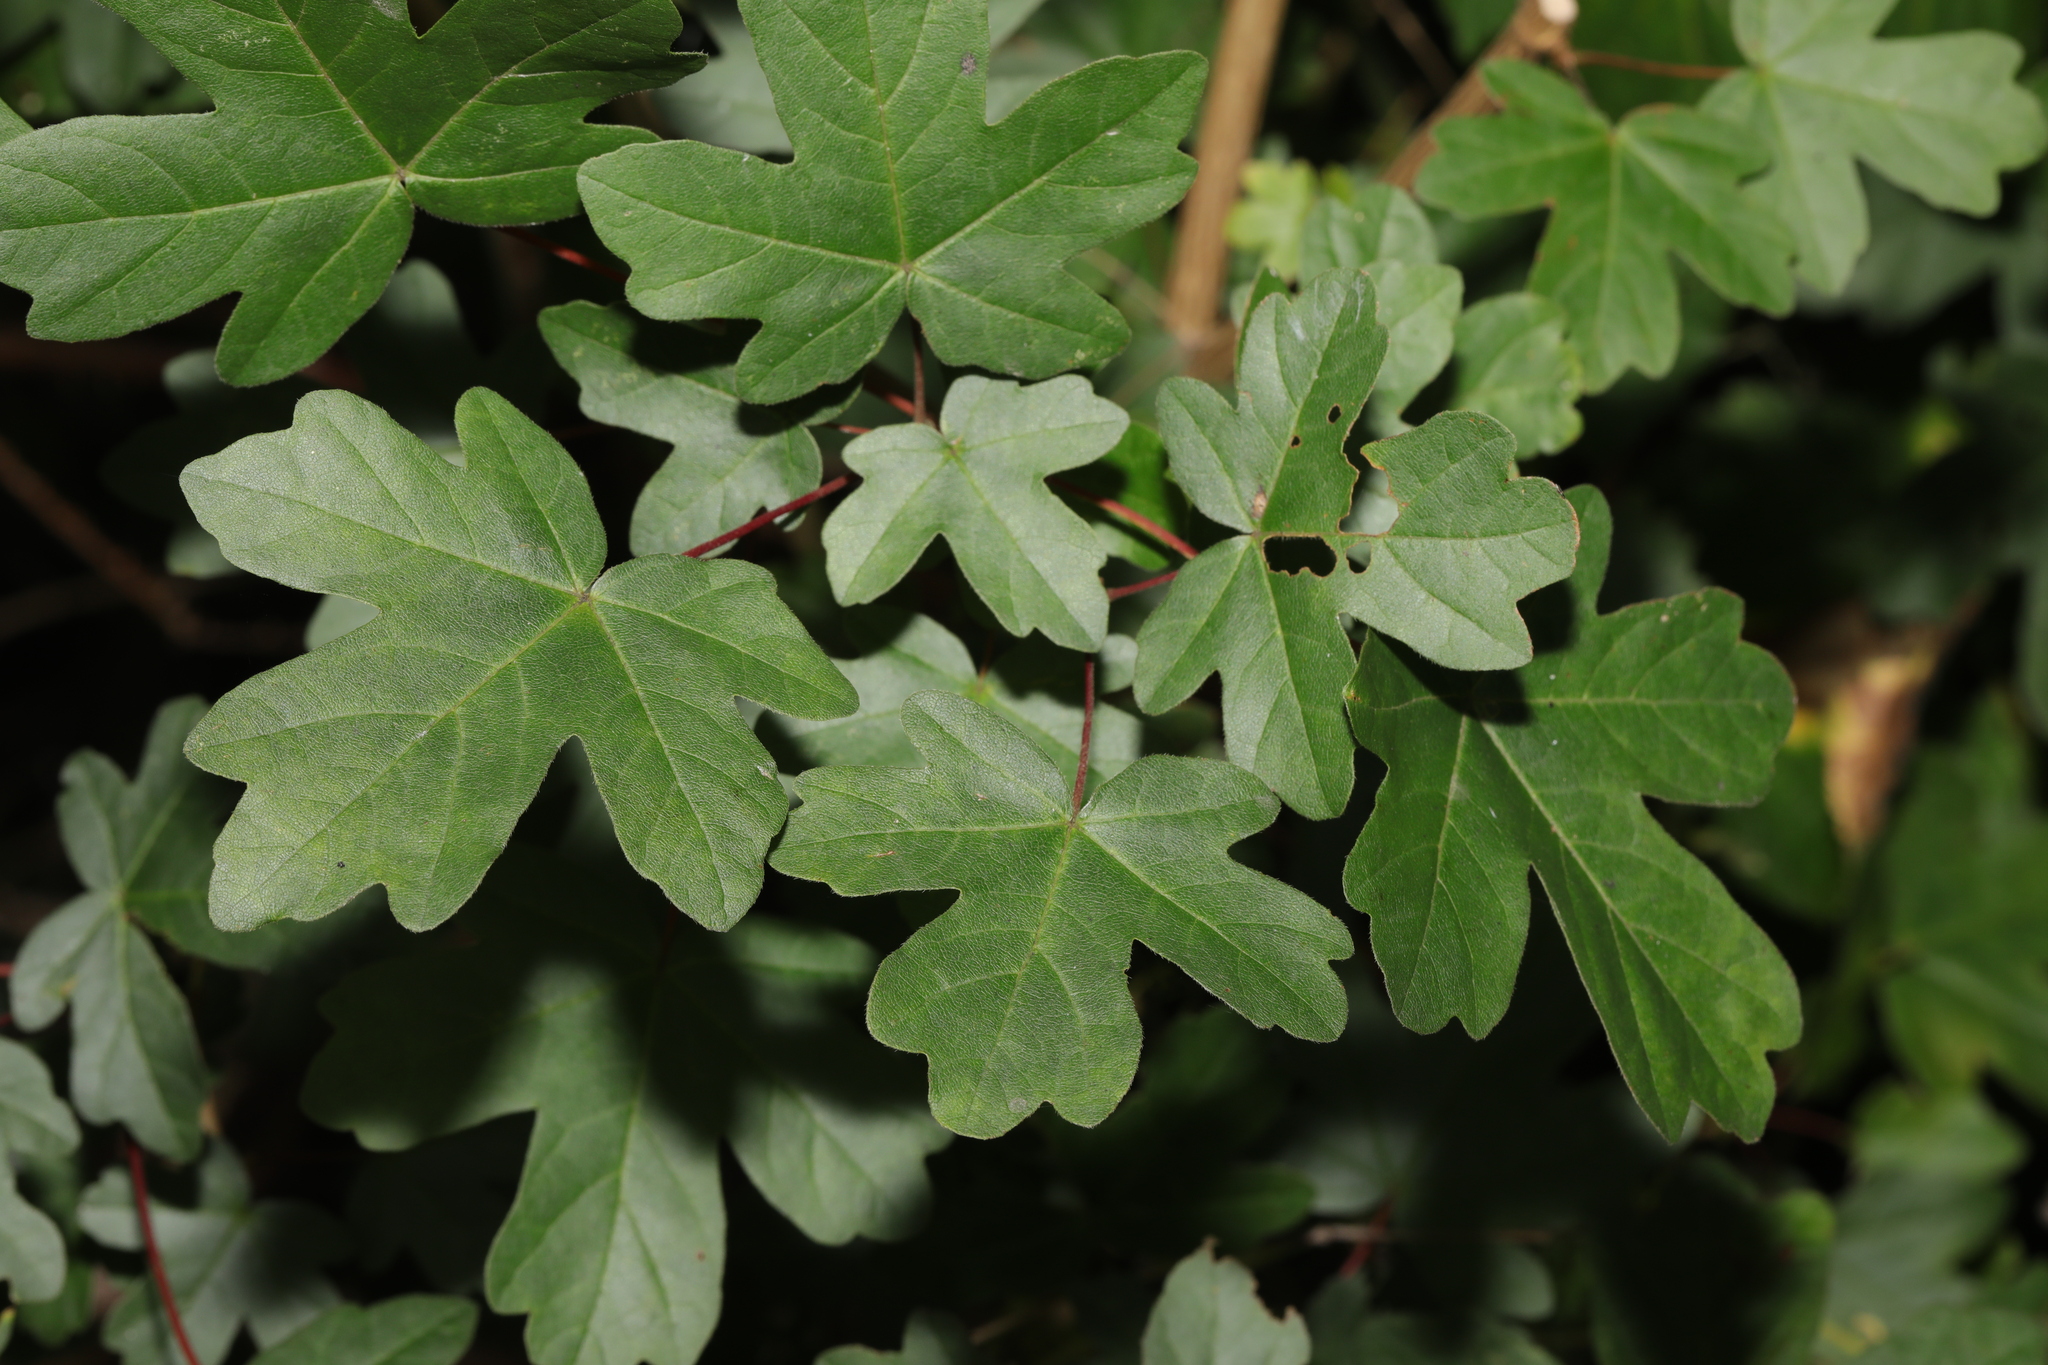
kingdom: Plantae
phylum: Tracheophyta
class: Magnoliopsida
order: Sapindales
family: Sapindaceae
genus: Acer
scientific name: Acer campestre
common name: Field maple
